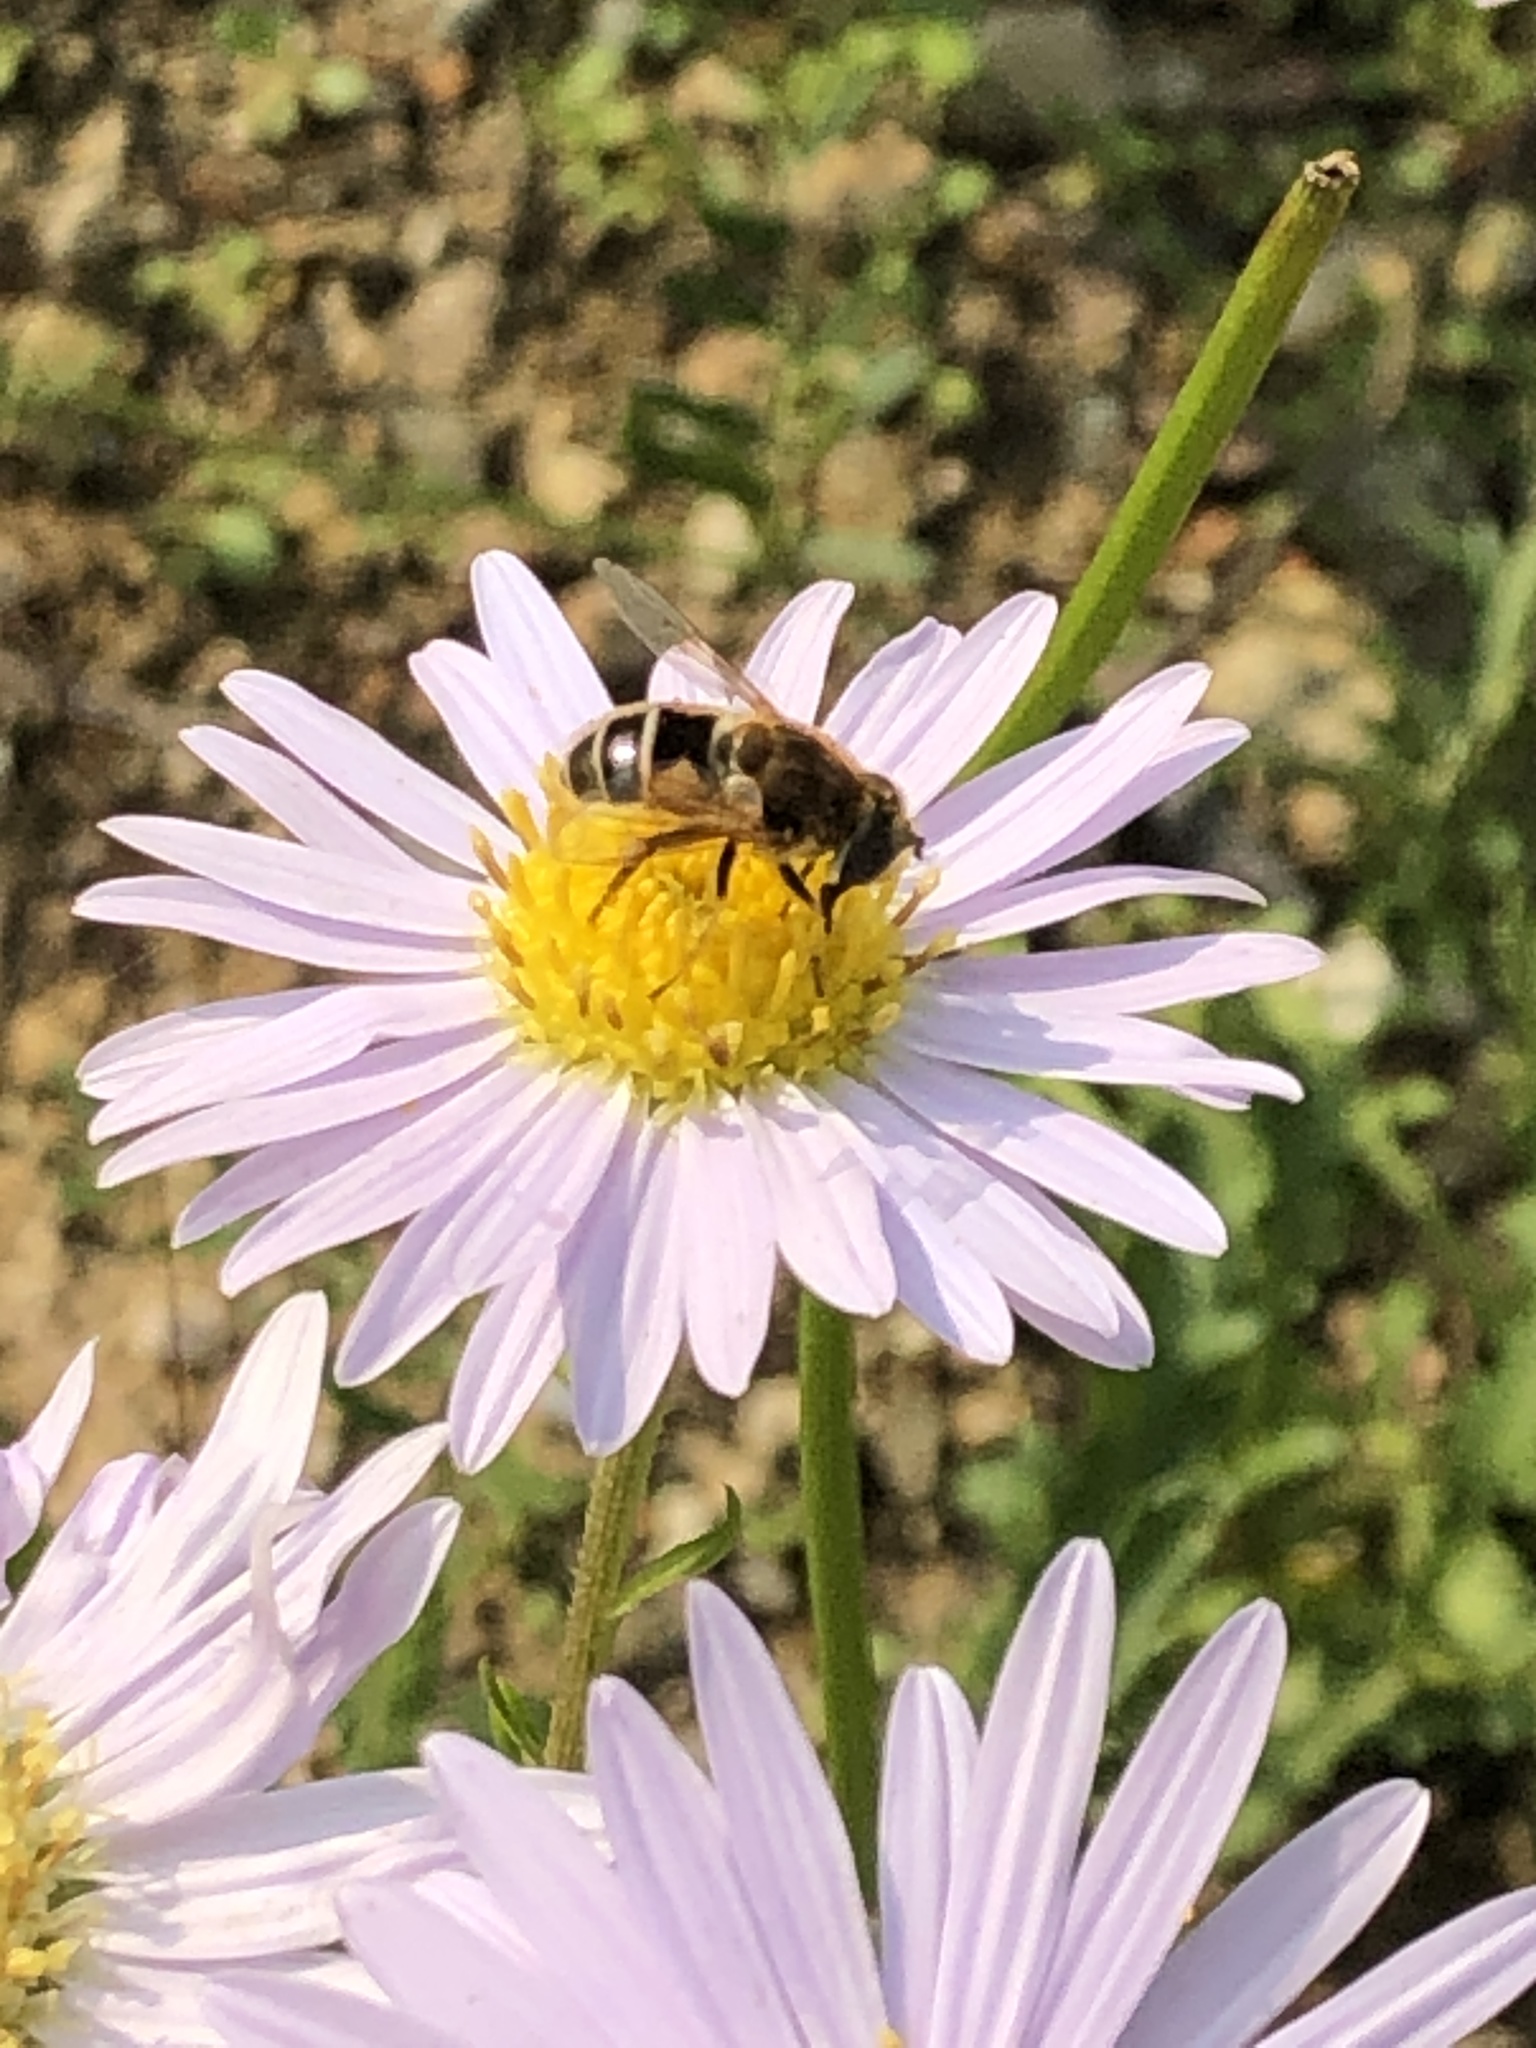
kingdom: Animalia
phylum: Arthropoda
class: Insecta
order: Diptera
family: Syrphidae
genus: Eristalis
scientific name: Eristalis arbustorum
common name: Hover fly
